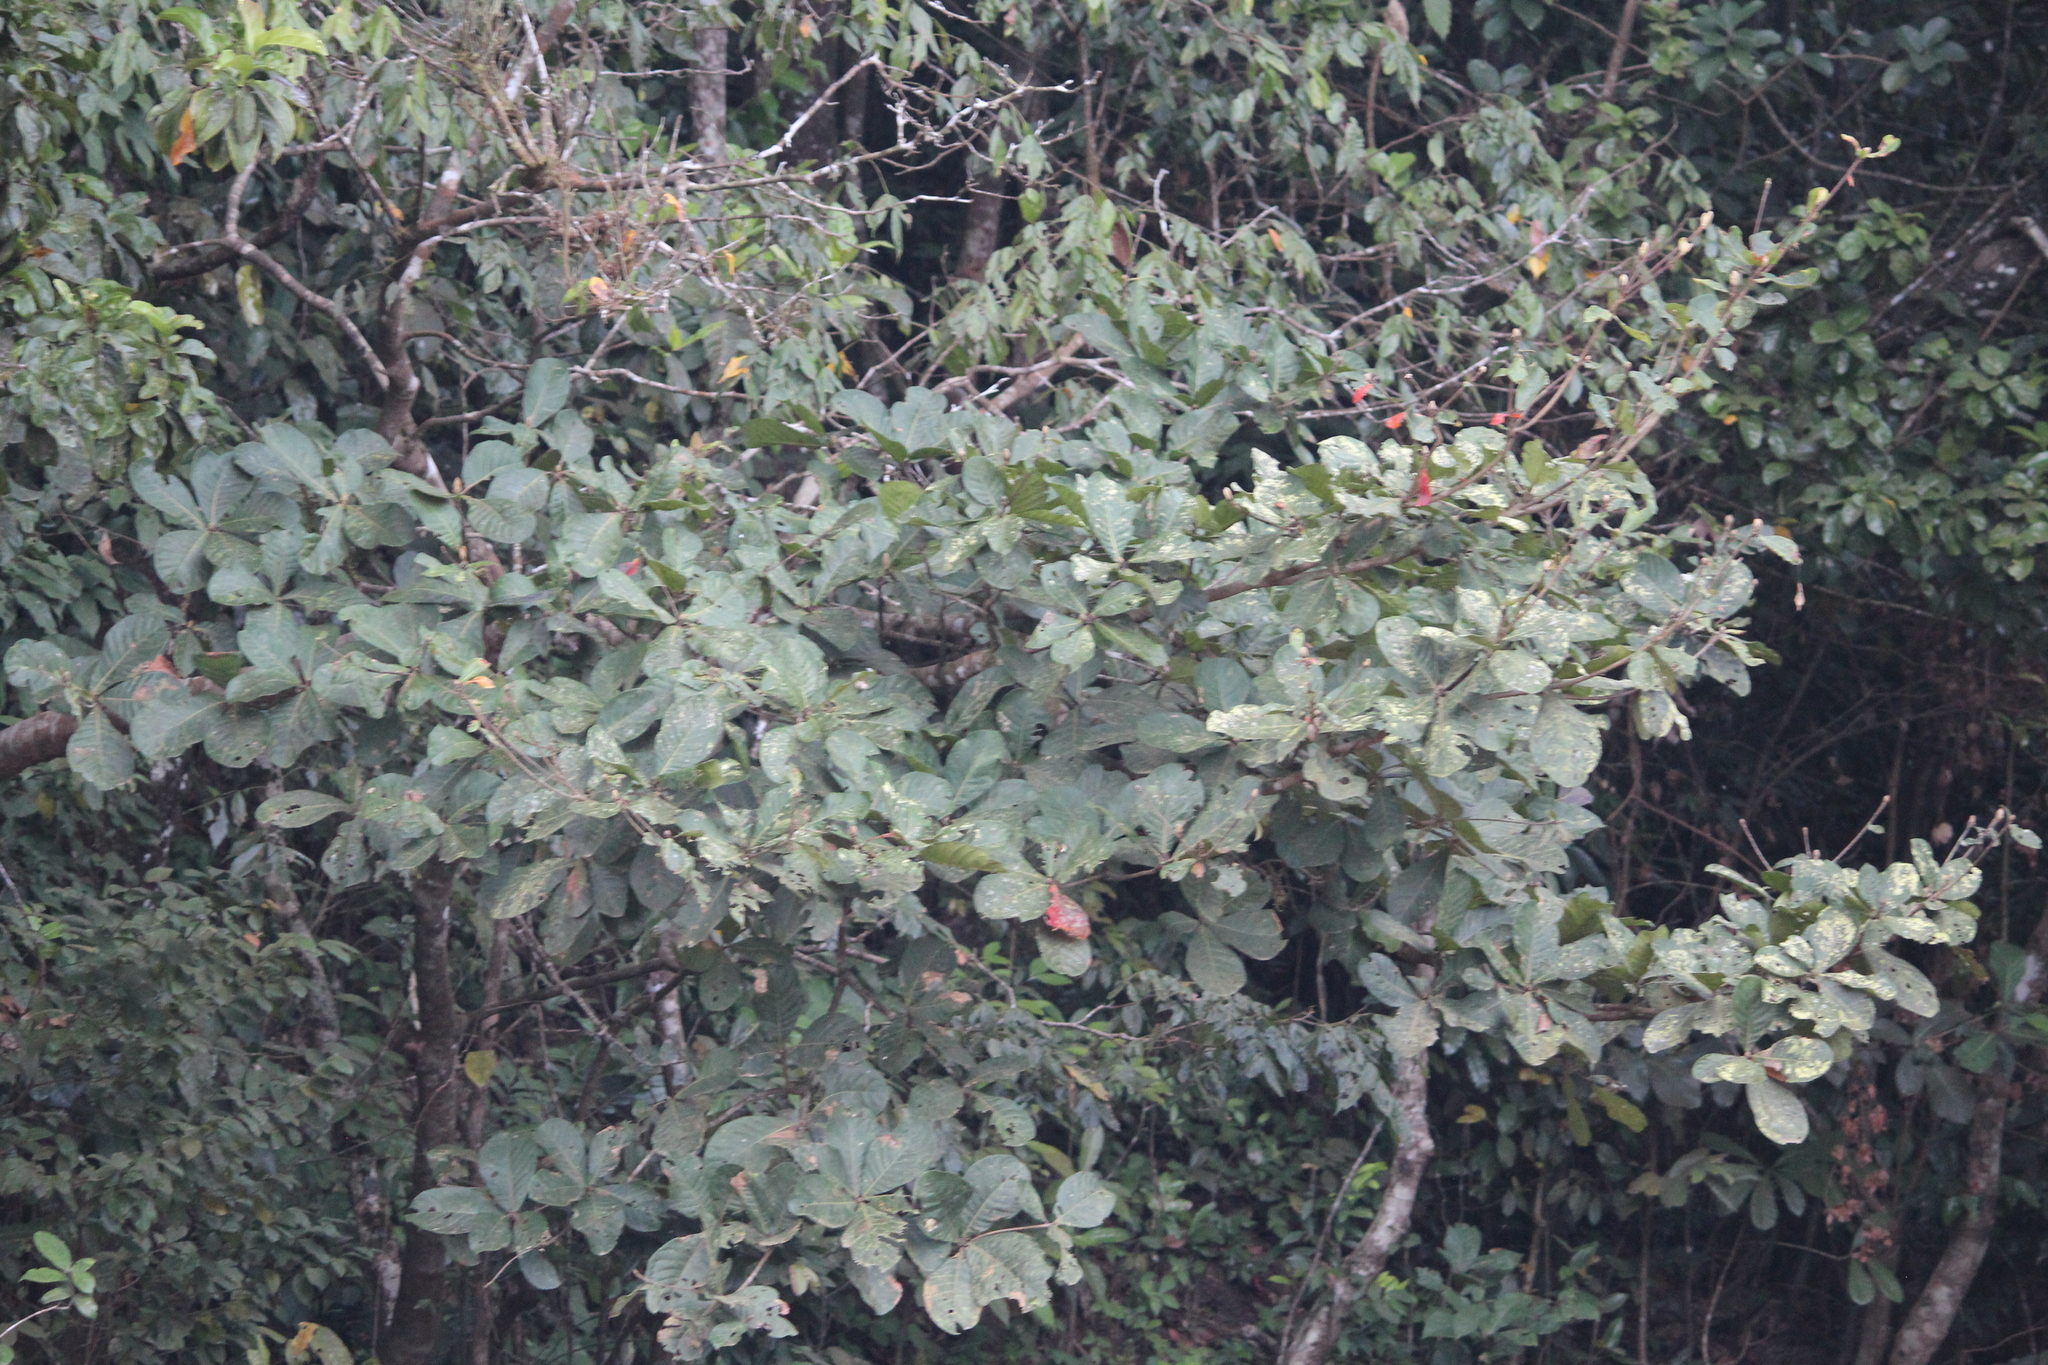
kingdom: Plantae
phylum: Tracheophyta
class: Magnoliopsida
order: Oxalidales
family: Elaeocarpaceae
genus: Elaeocarpus
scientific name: Elaeocarpus tuberculatus
